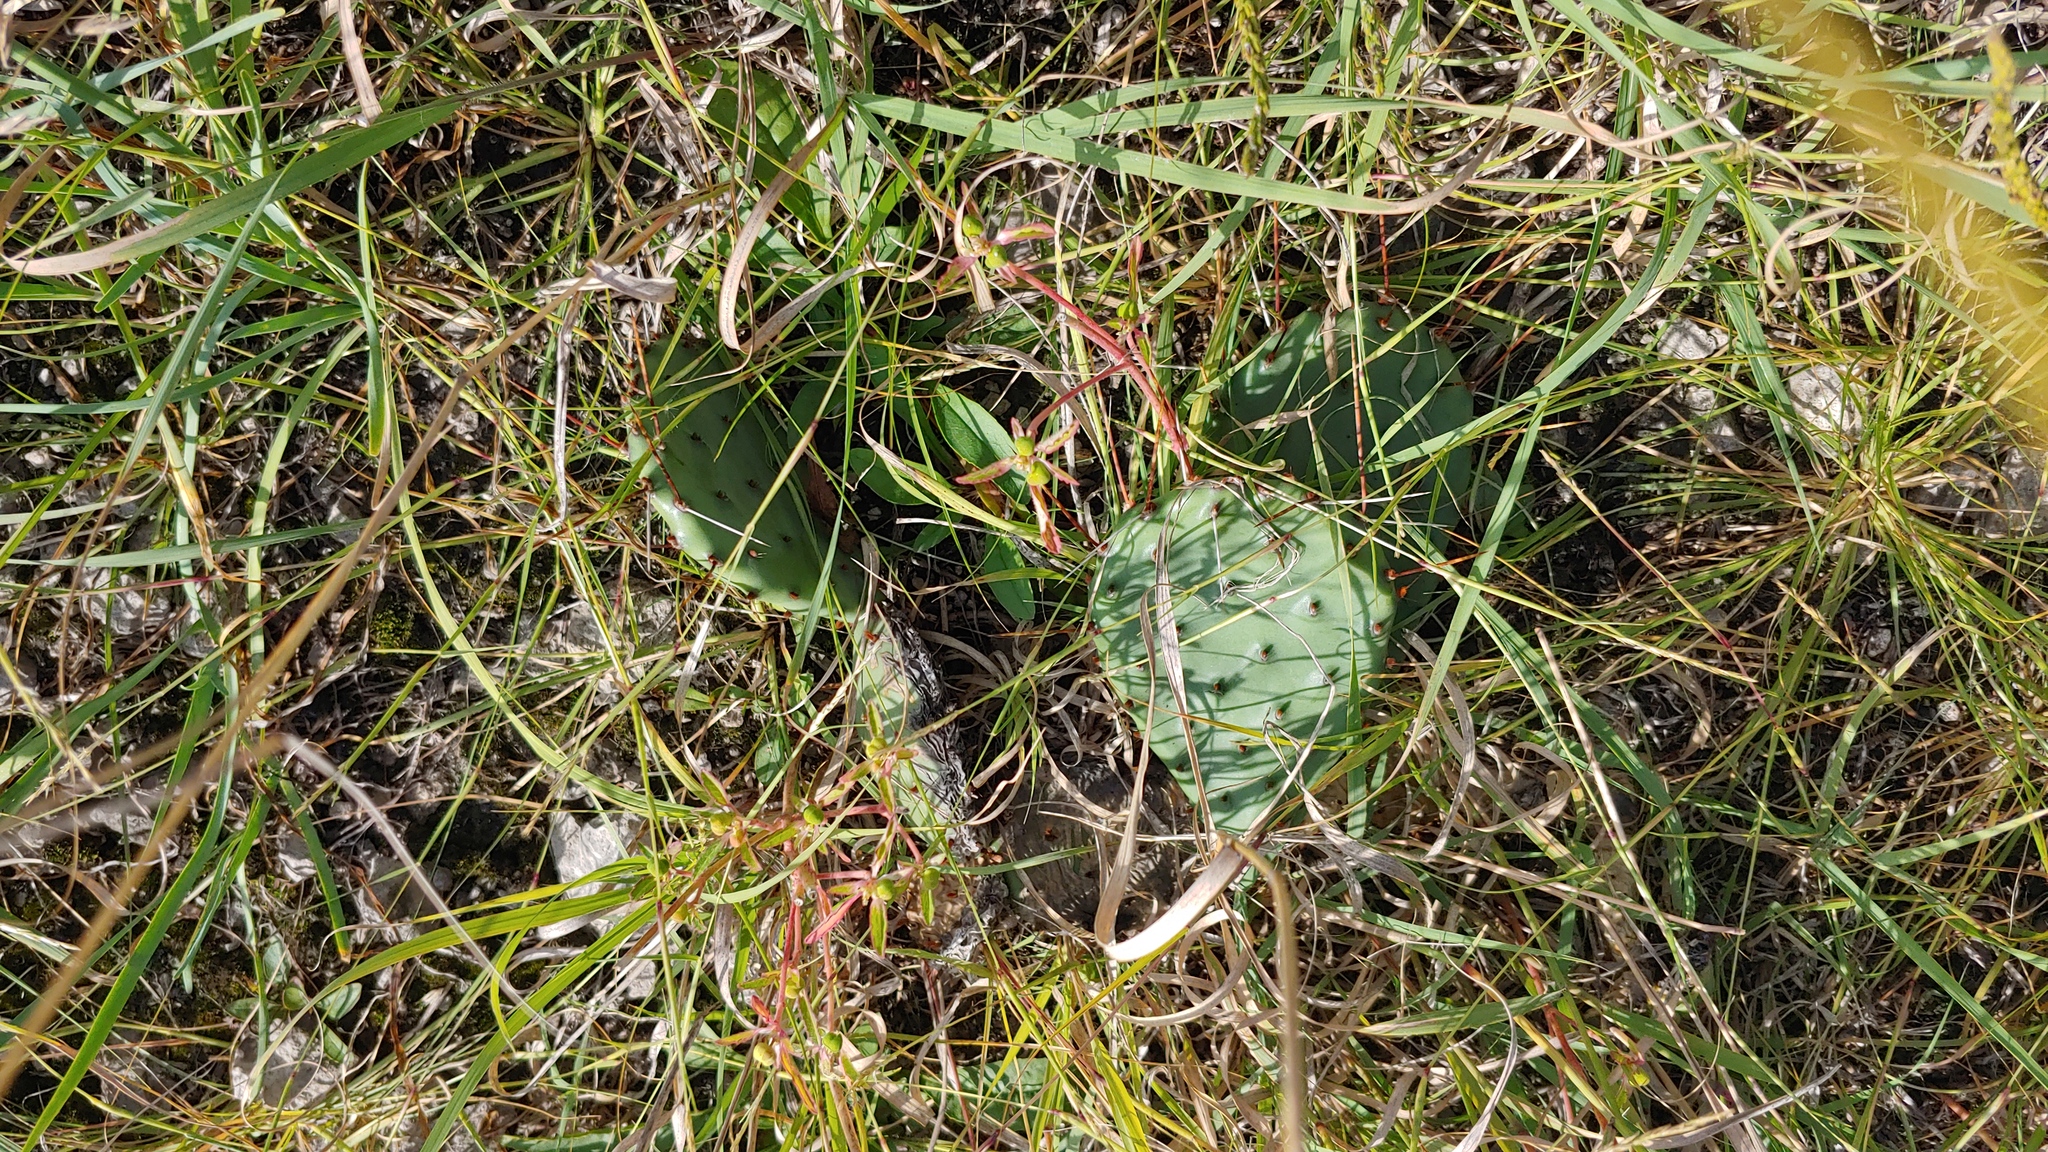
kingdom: Plantae
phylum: Tracheophyta
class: Magnoliopsida
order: Caryophyllales
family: Cactaceae
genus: Opuntia
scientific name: Opuntia humifusa
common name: Eastern prickly-pear
